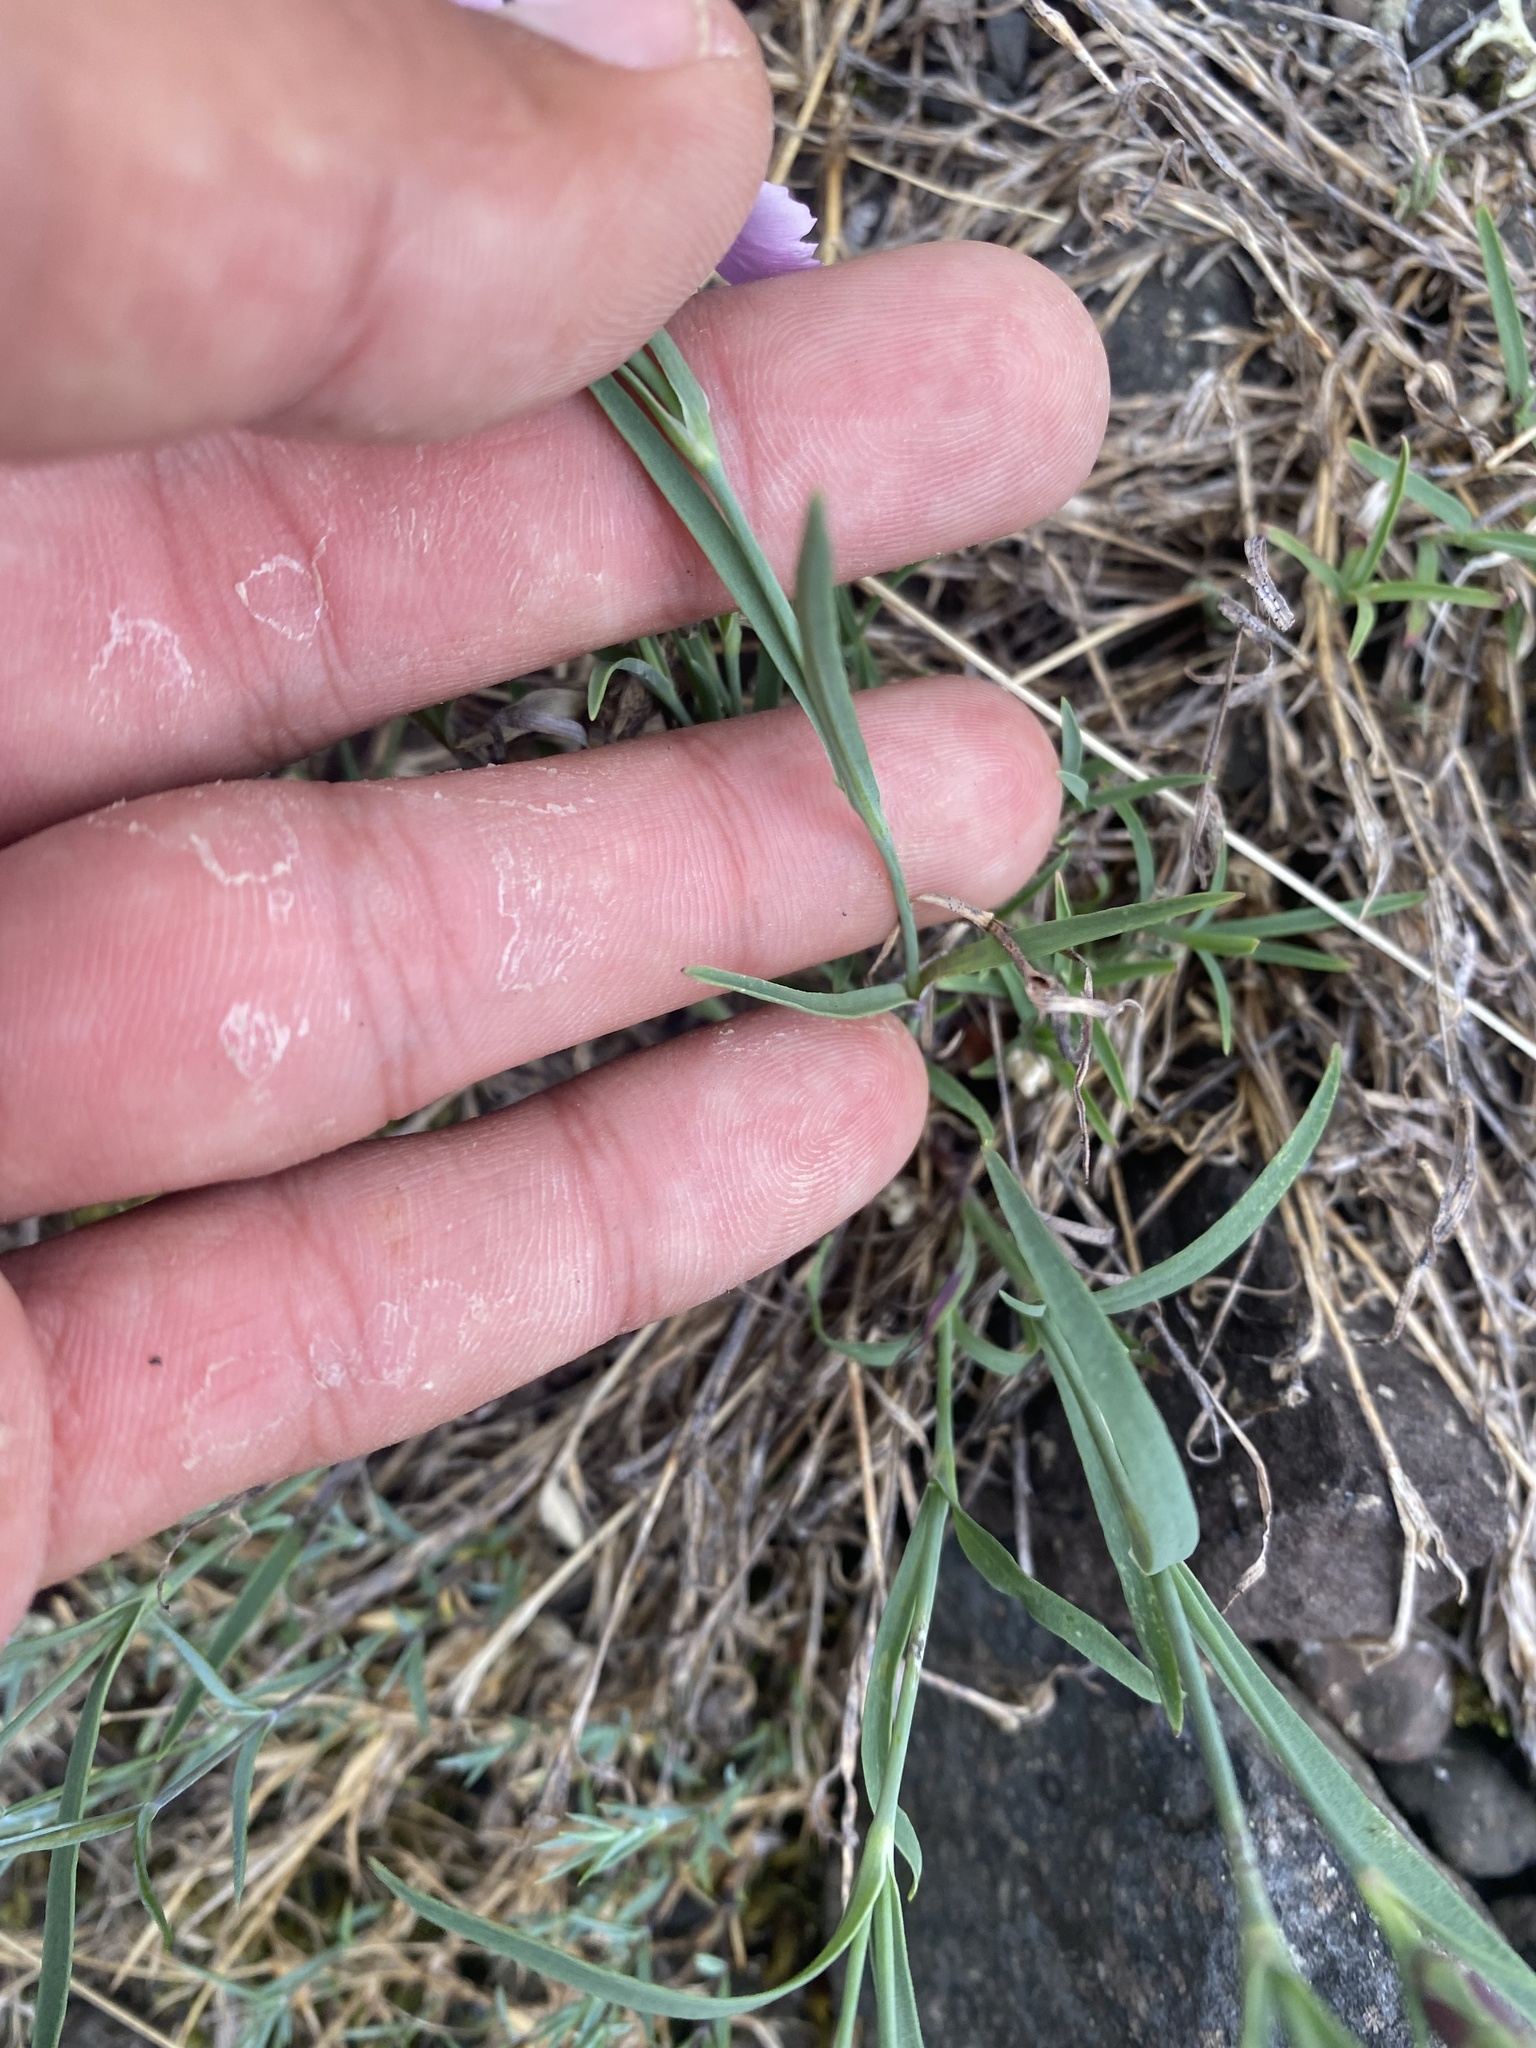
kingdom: Plantae
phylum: Tracheophyta
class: Magnoliopsida
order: Caryophyllales
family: Caryophyllaceae
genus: Dianthus
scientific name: Dianthus repens
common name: Northern pink
